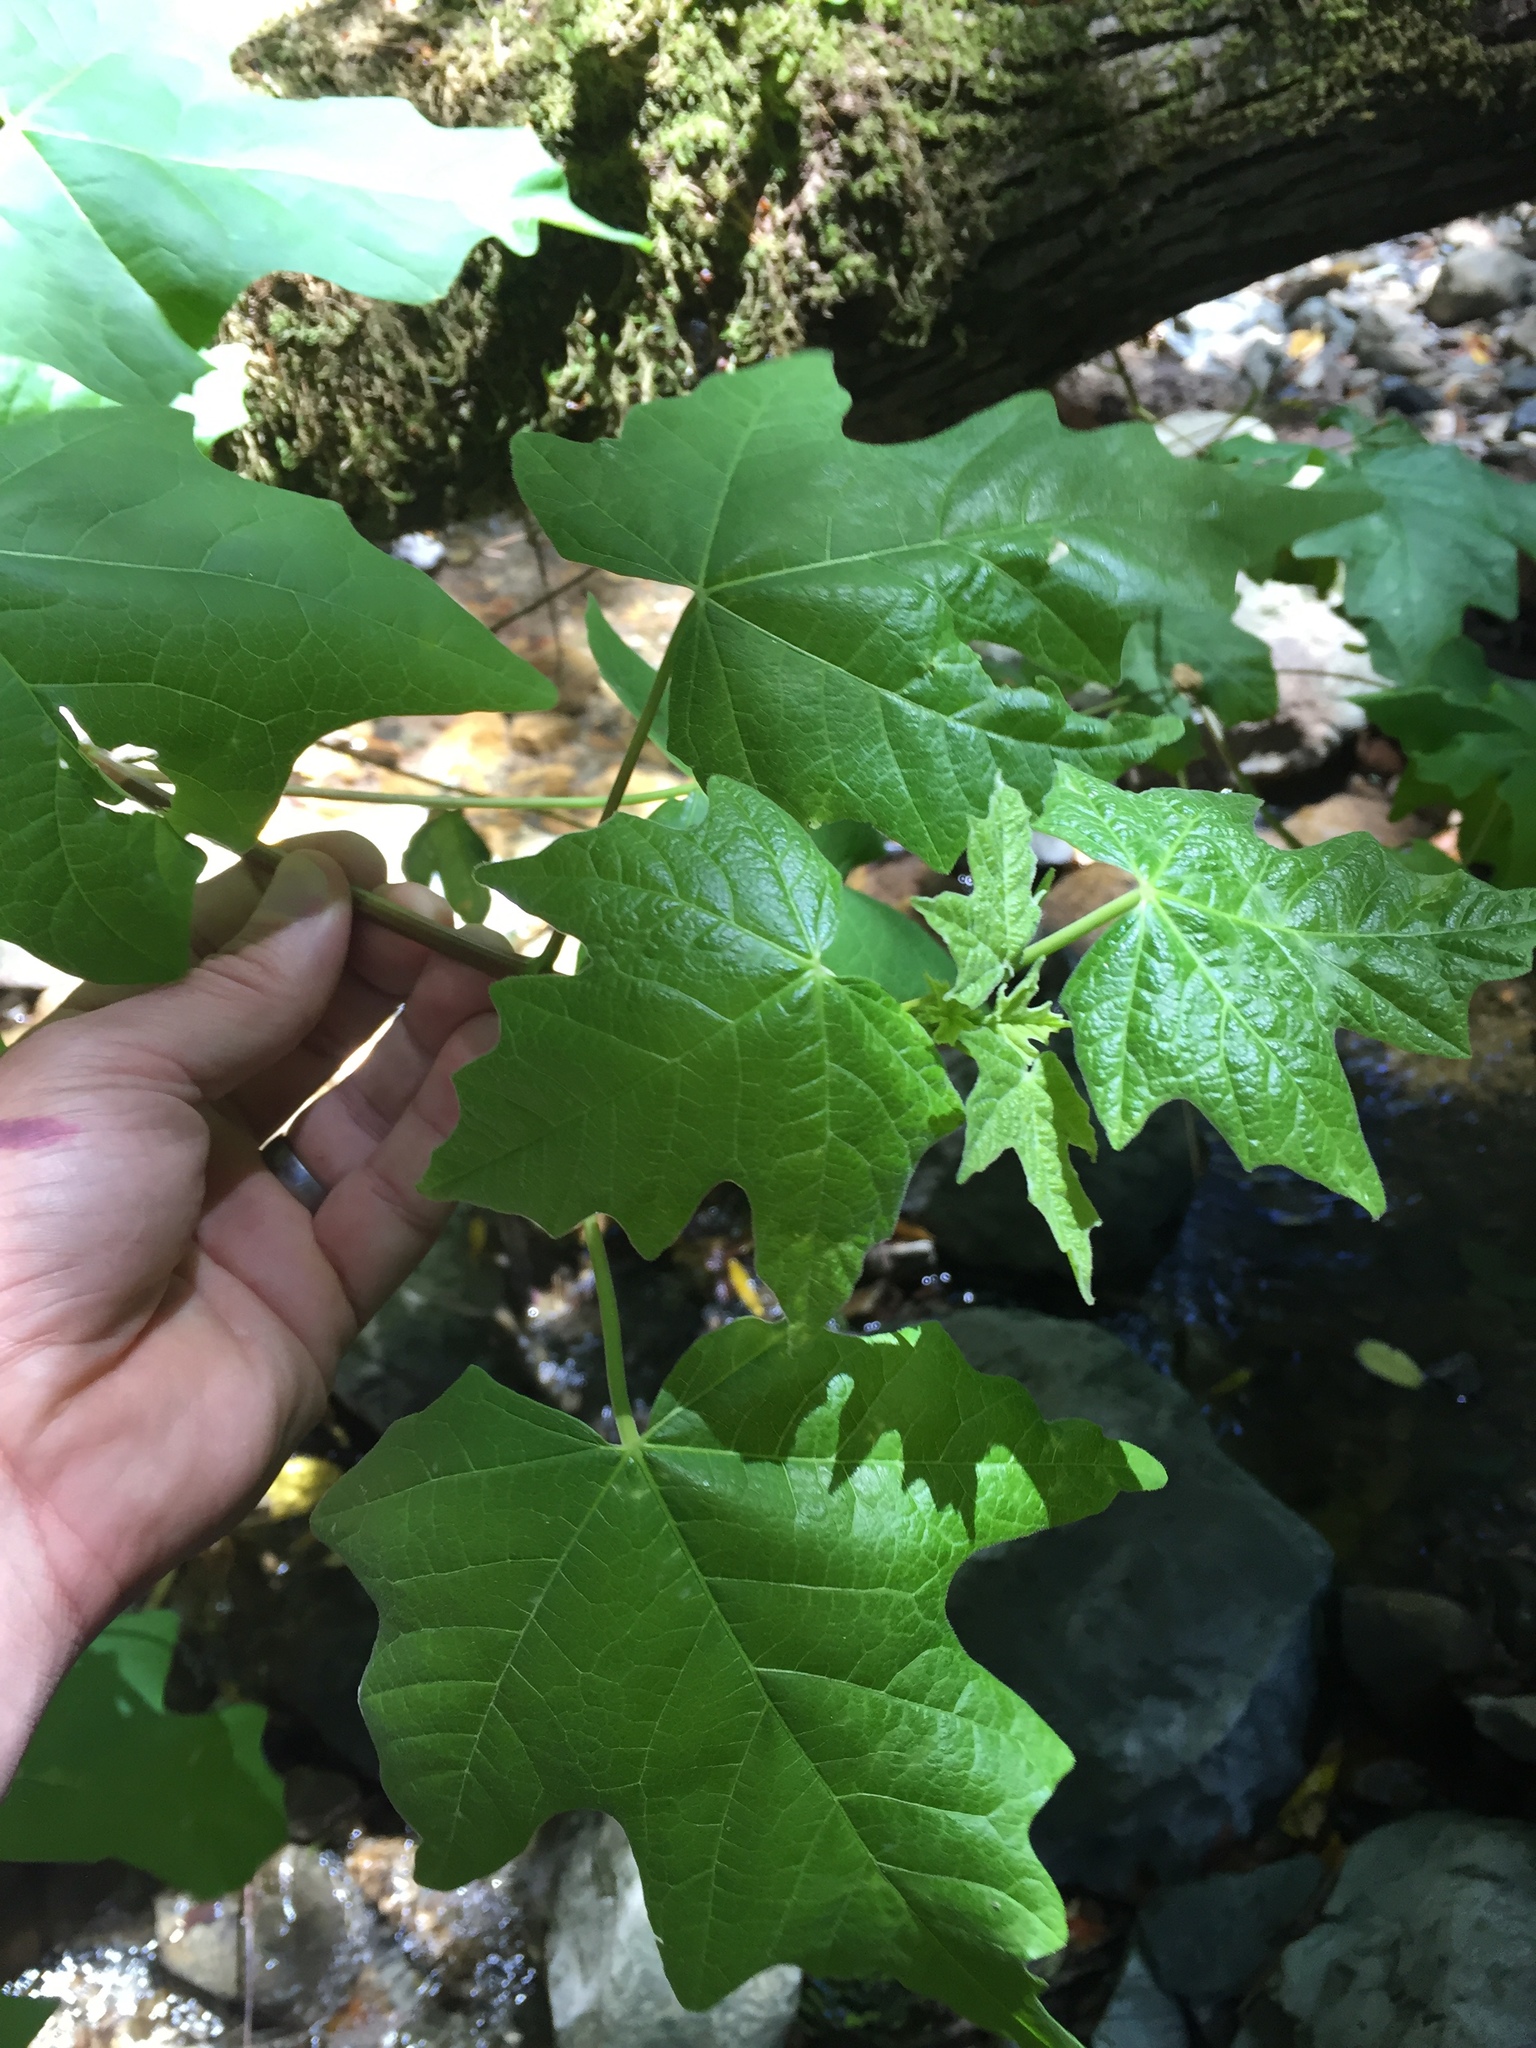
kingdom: Plantae
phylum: Tracheophyta
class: Magnoliopsida
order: Sapindales
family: Sapindaceae
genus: Acer
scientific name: Acer macrophyllum
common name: Oregon maple
